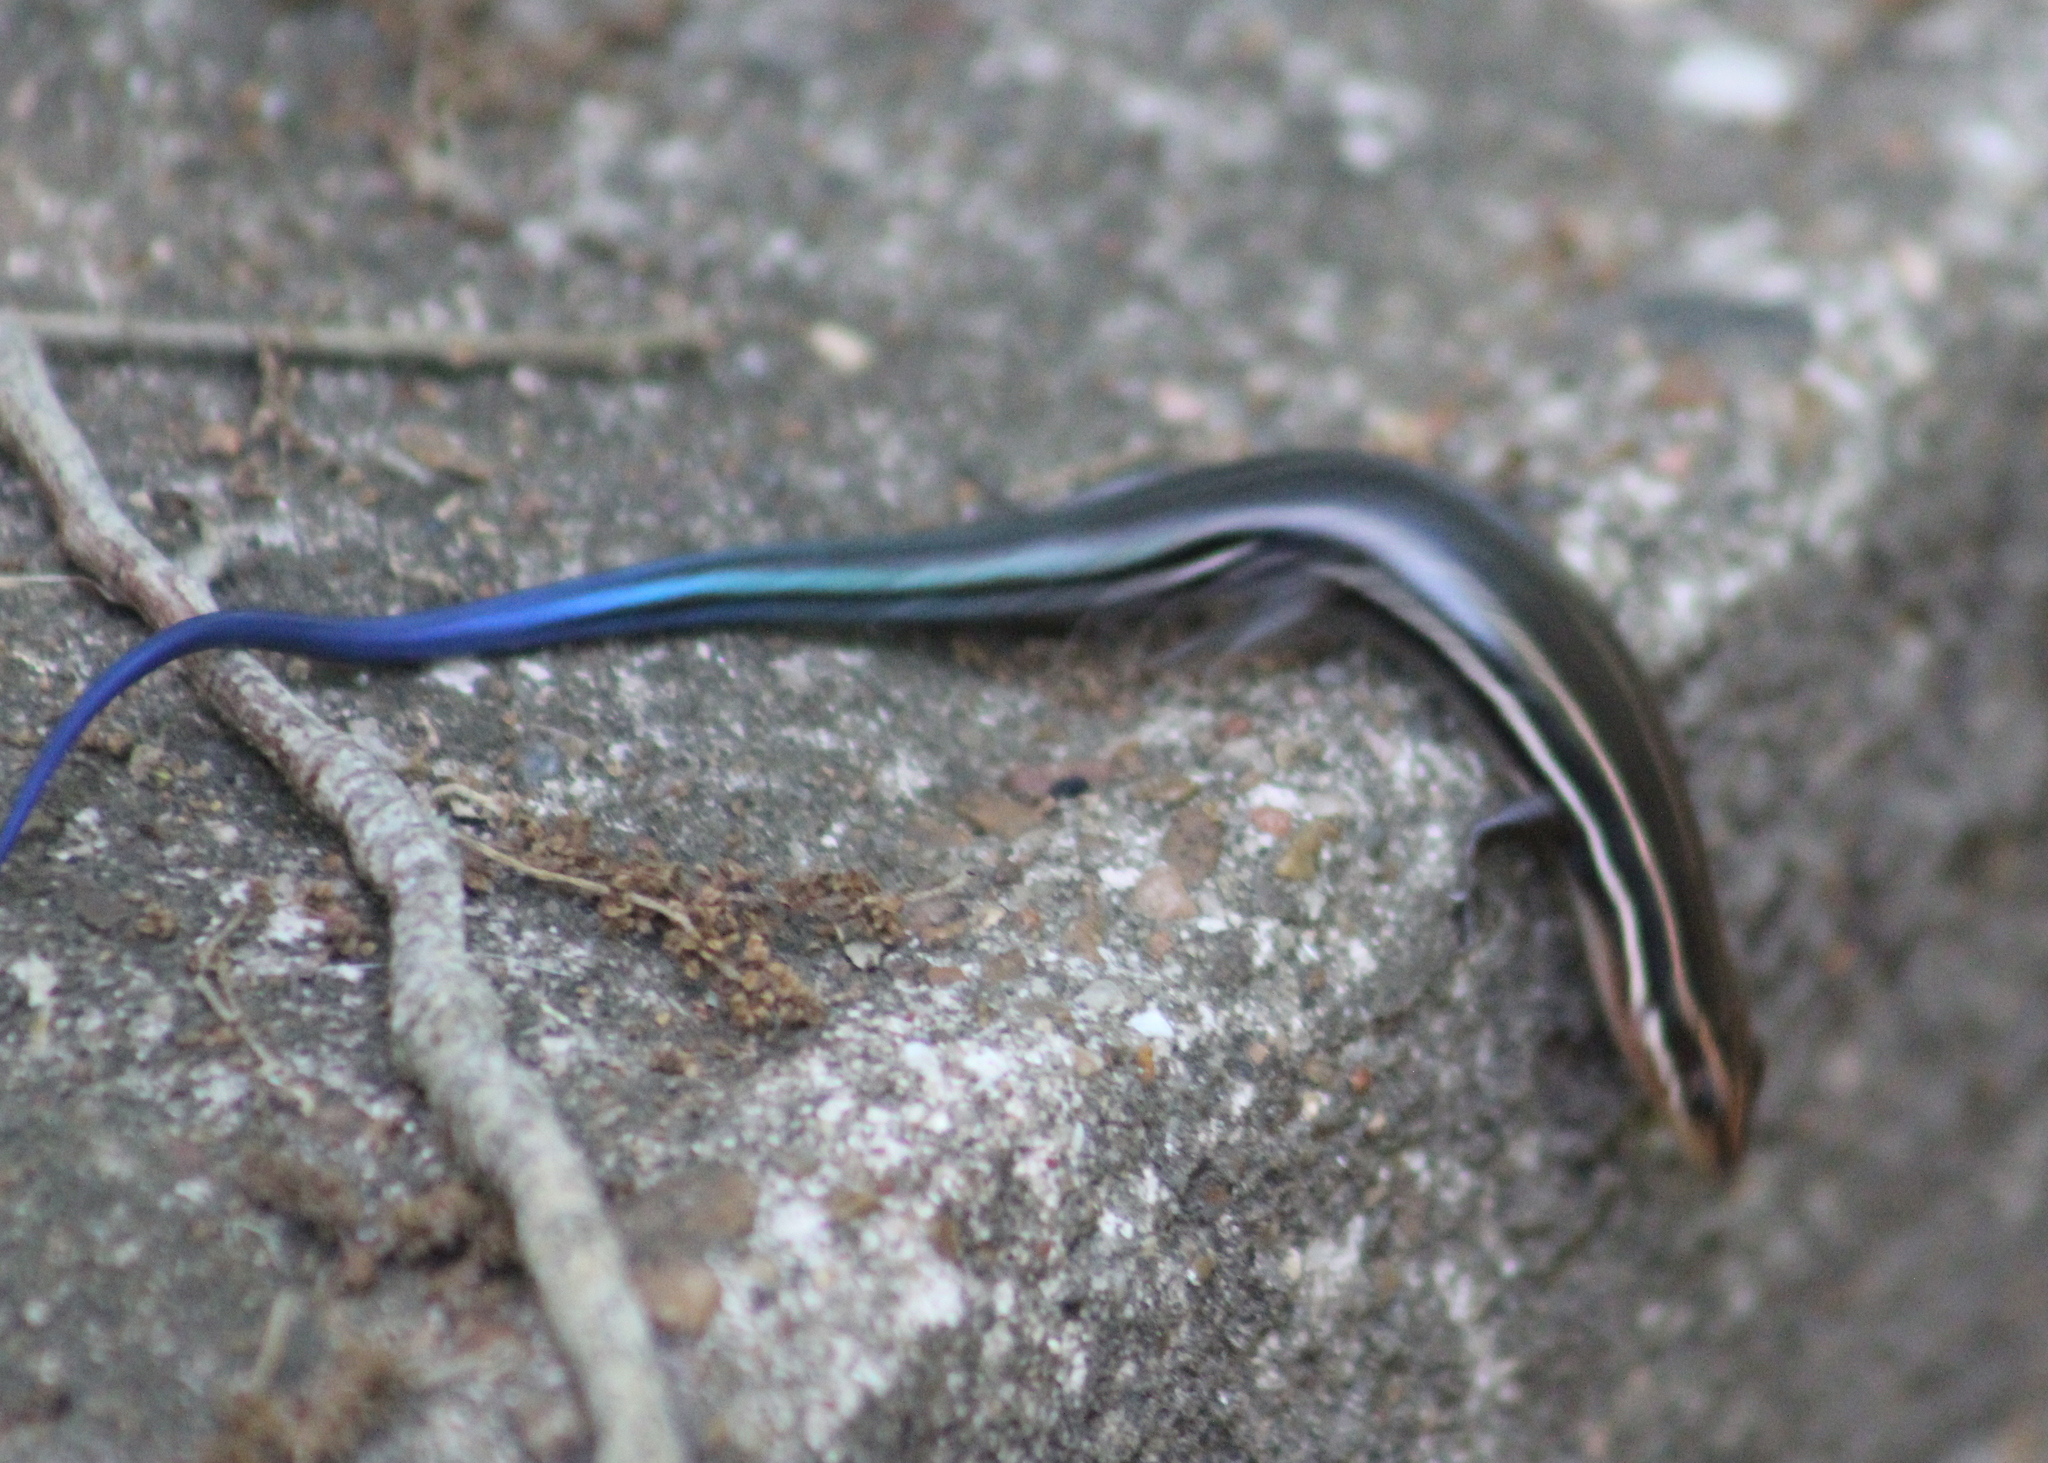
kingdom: Animalia
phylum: Chordata
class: Squamata
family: Scincidae
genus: Plestiodon
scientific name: Plestiodon inexpectatus
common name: Southeastern five-lined skink
